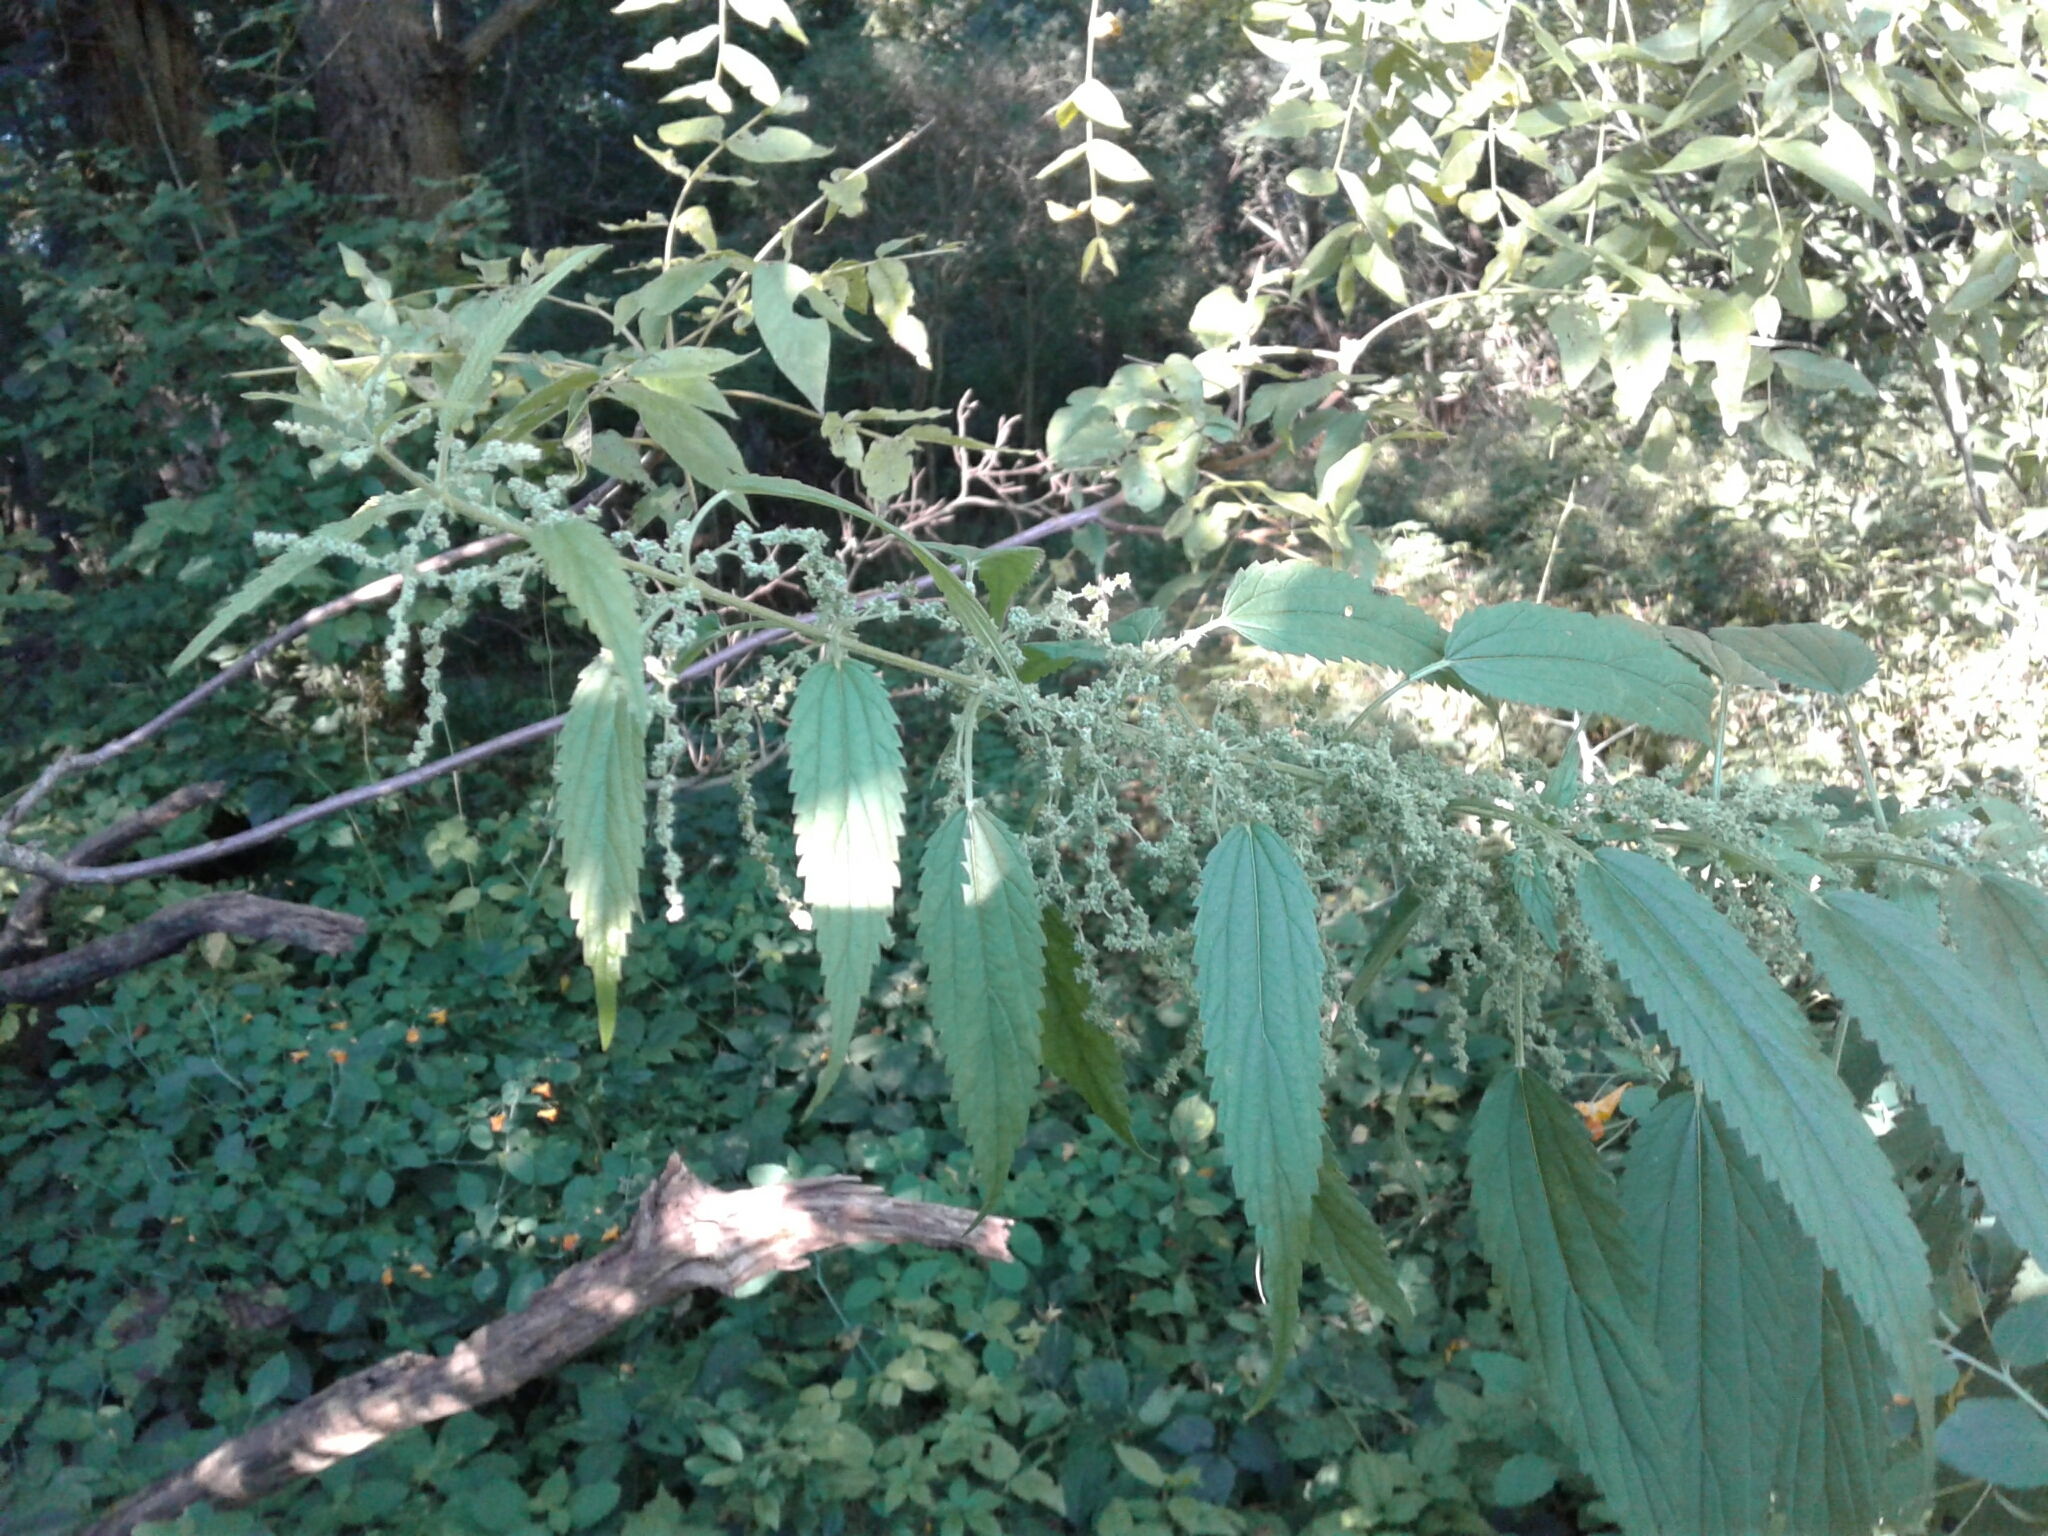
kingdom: Plantae
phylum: Tracheophyta
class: Magnoliopsida
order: Rosales
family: Urticaceae
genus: Urtica
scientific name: Urtica dioica
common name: Common nettle
